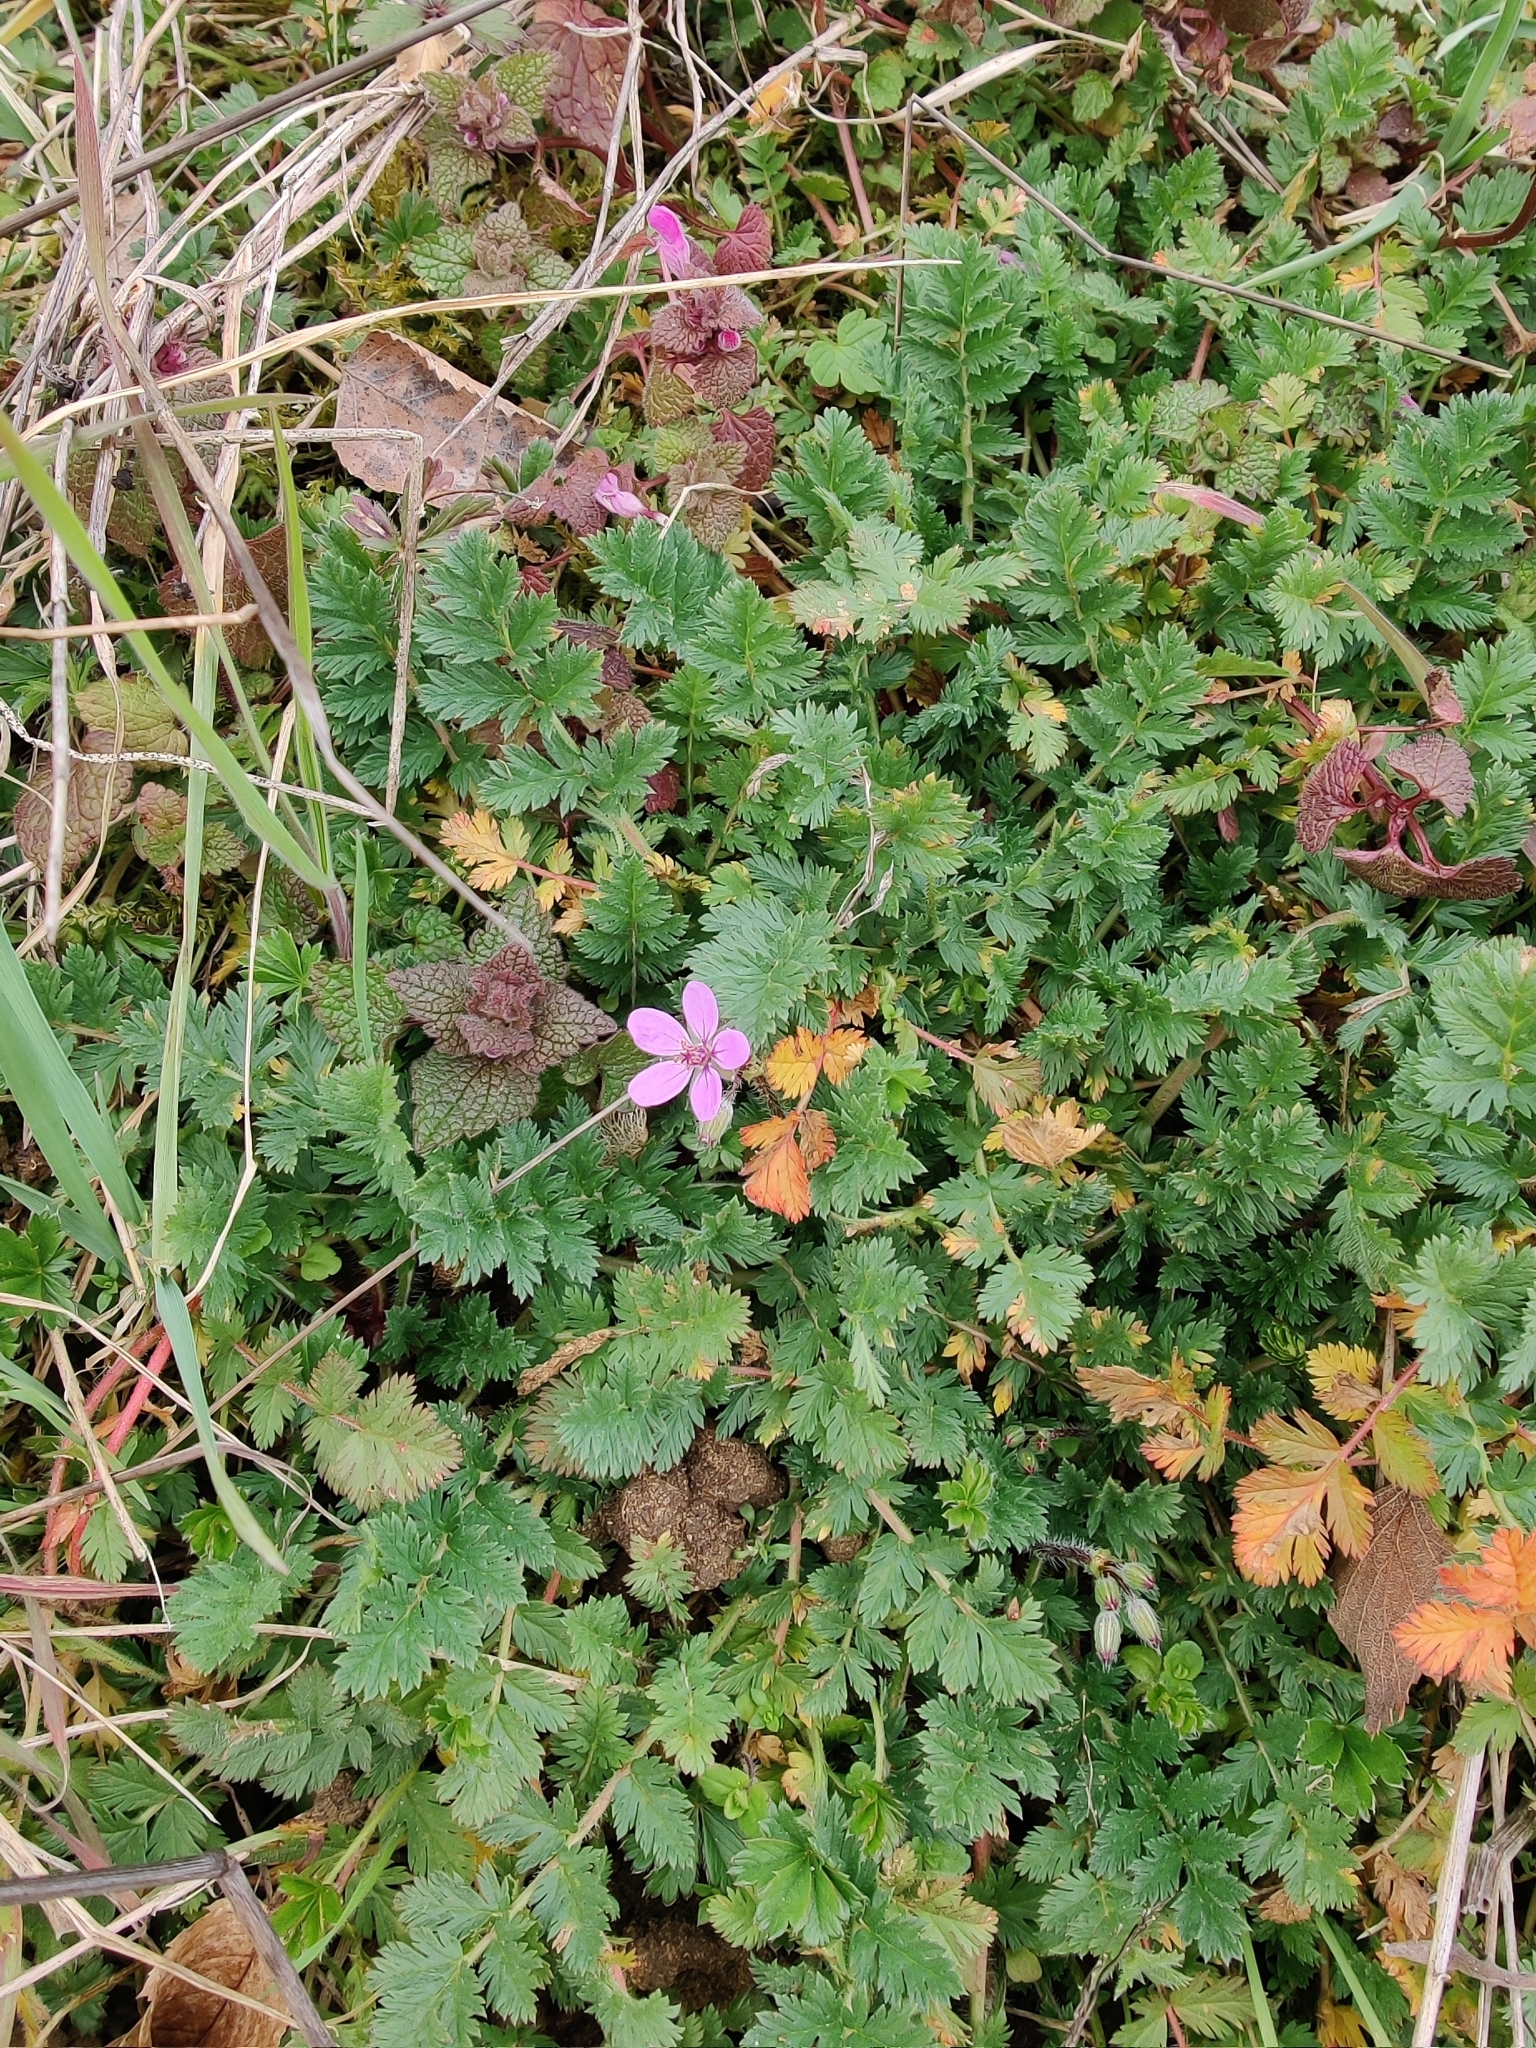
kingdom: Plantae
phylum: Tracheophyta
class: Magnoliopsida
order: Geraniales
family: Geraniaceae
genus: Erodium
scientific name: Erodium cicutarium
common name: Common stork's-bill
